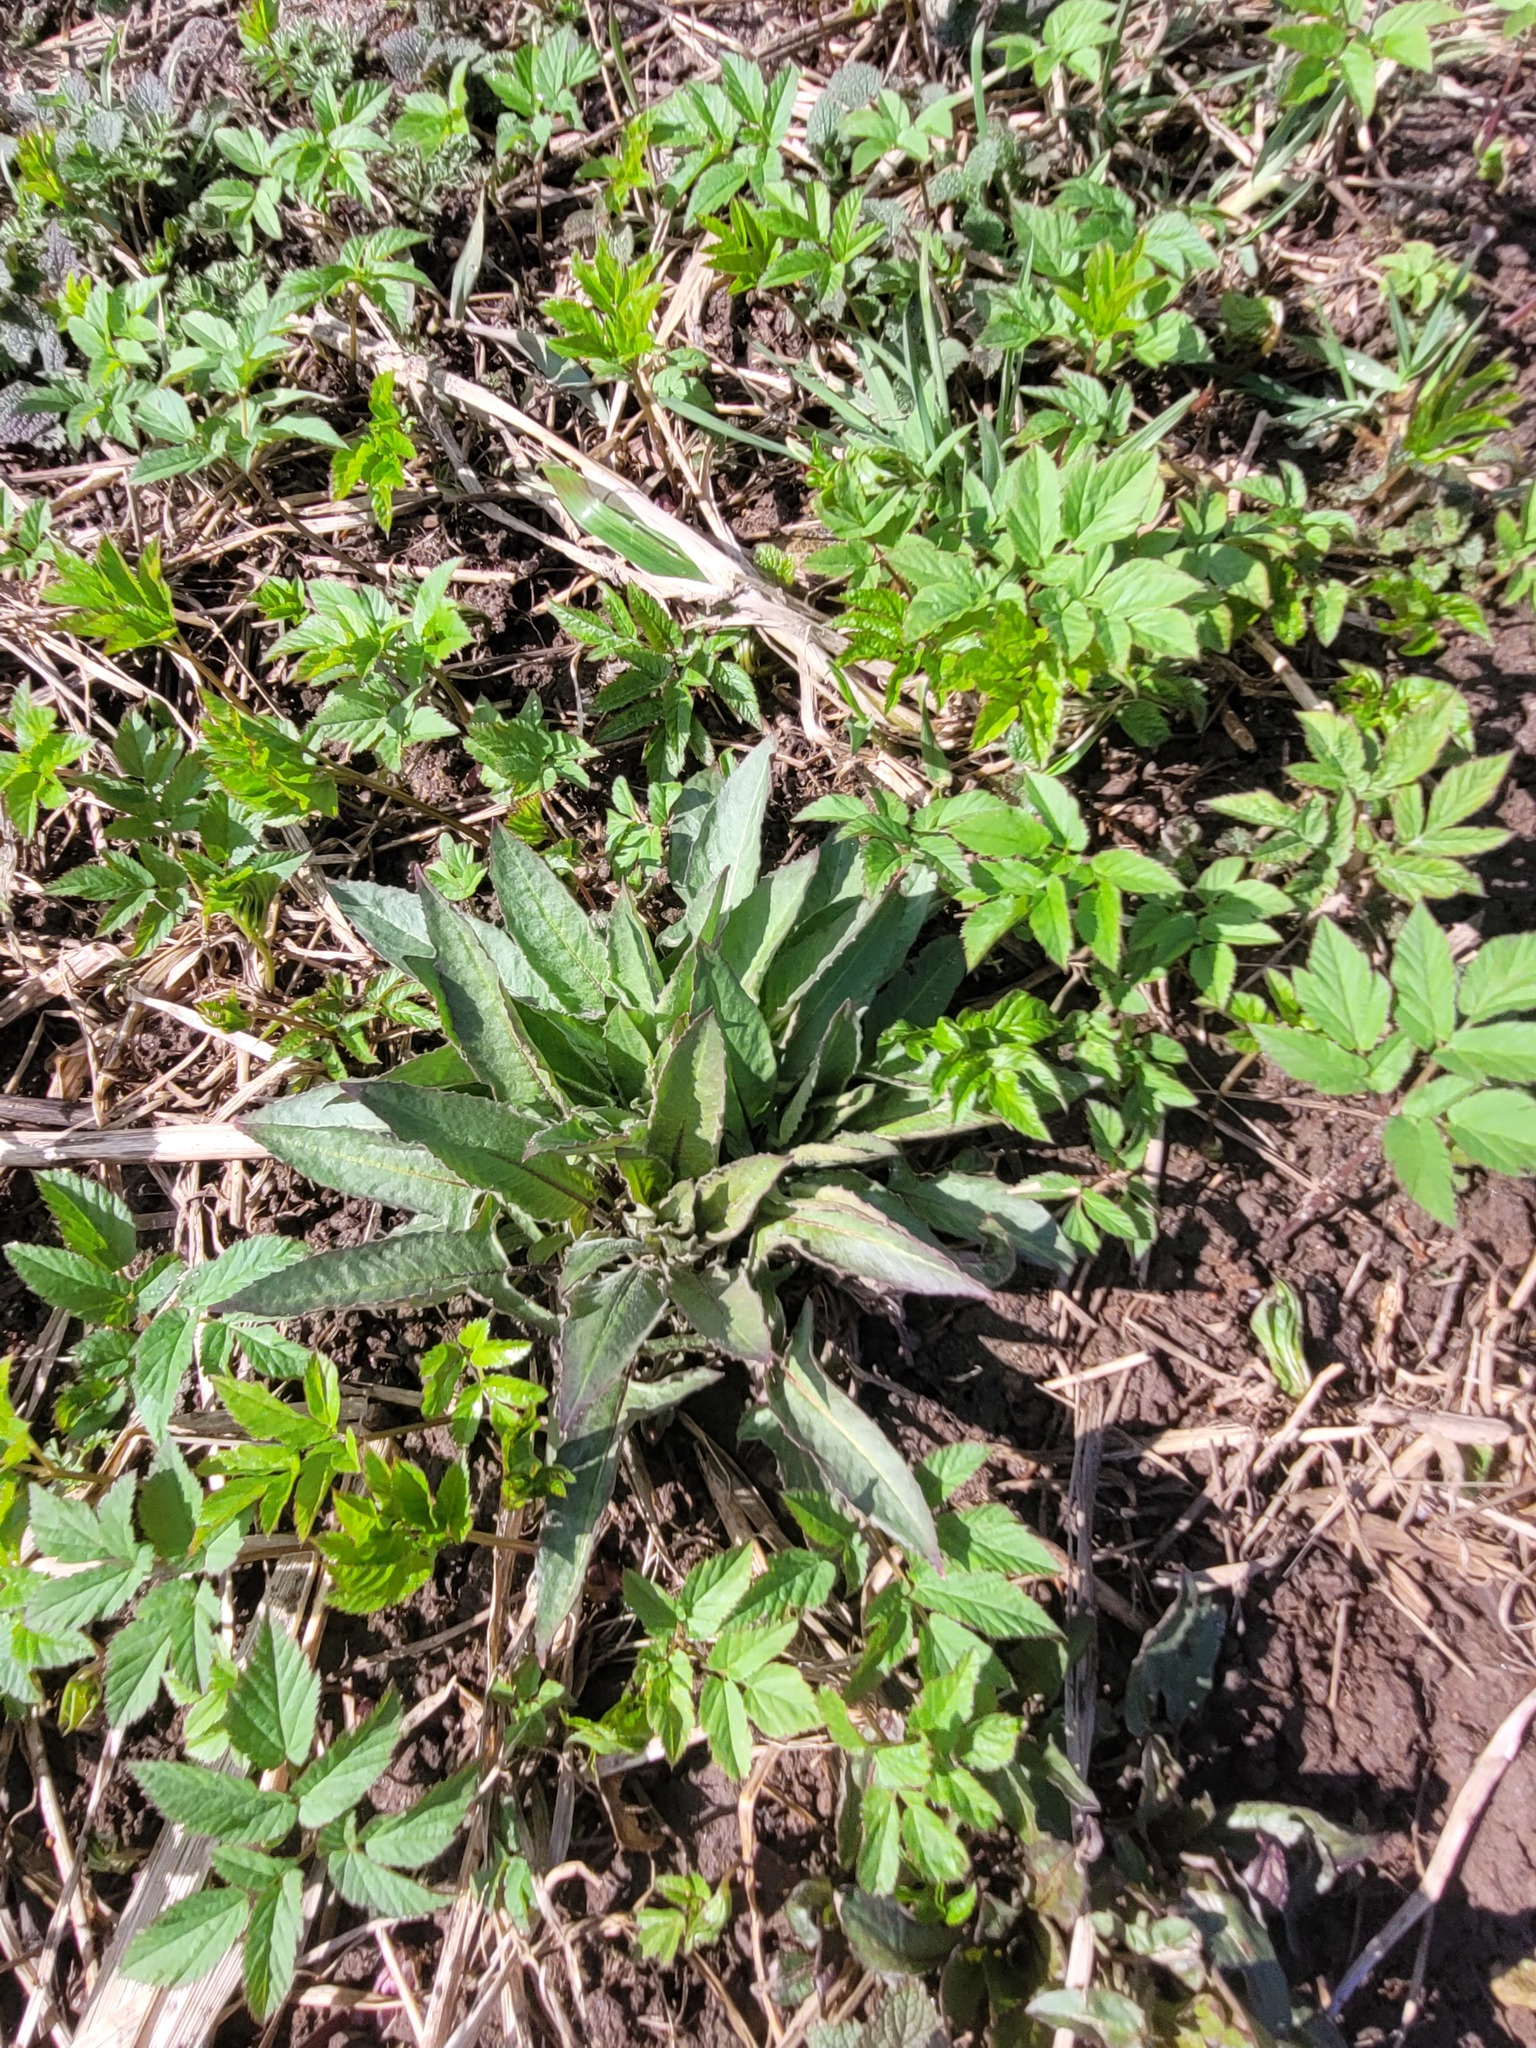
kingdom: Plantae
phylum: Tracheophyta
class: Magnoliopsida
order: Brassicales
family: Brassicaceae
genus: Bunias
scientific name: Bunias orientalis
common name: Warty-cabbage
